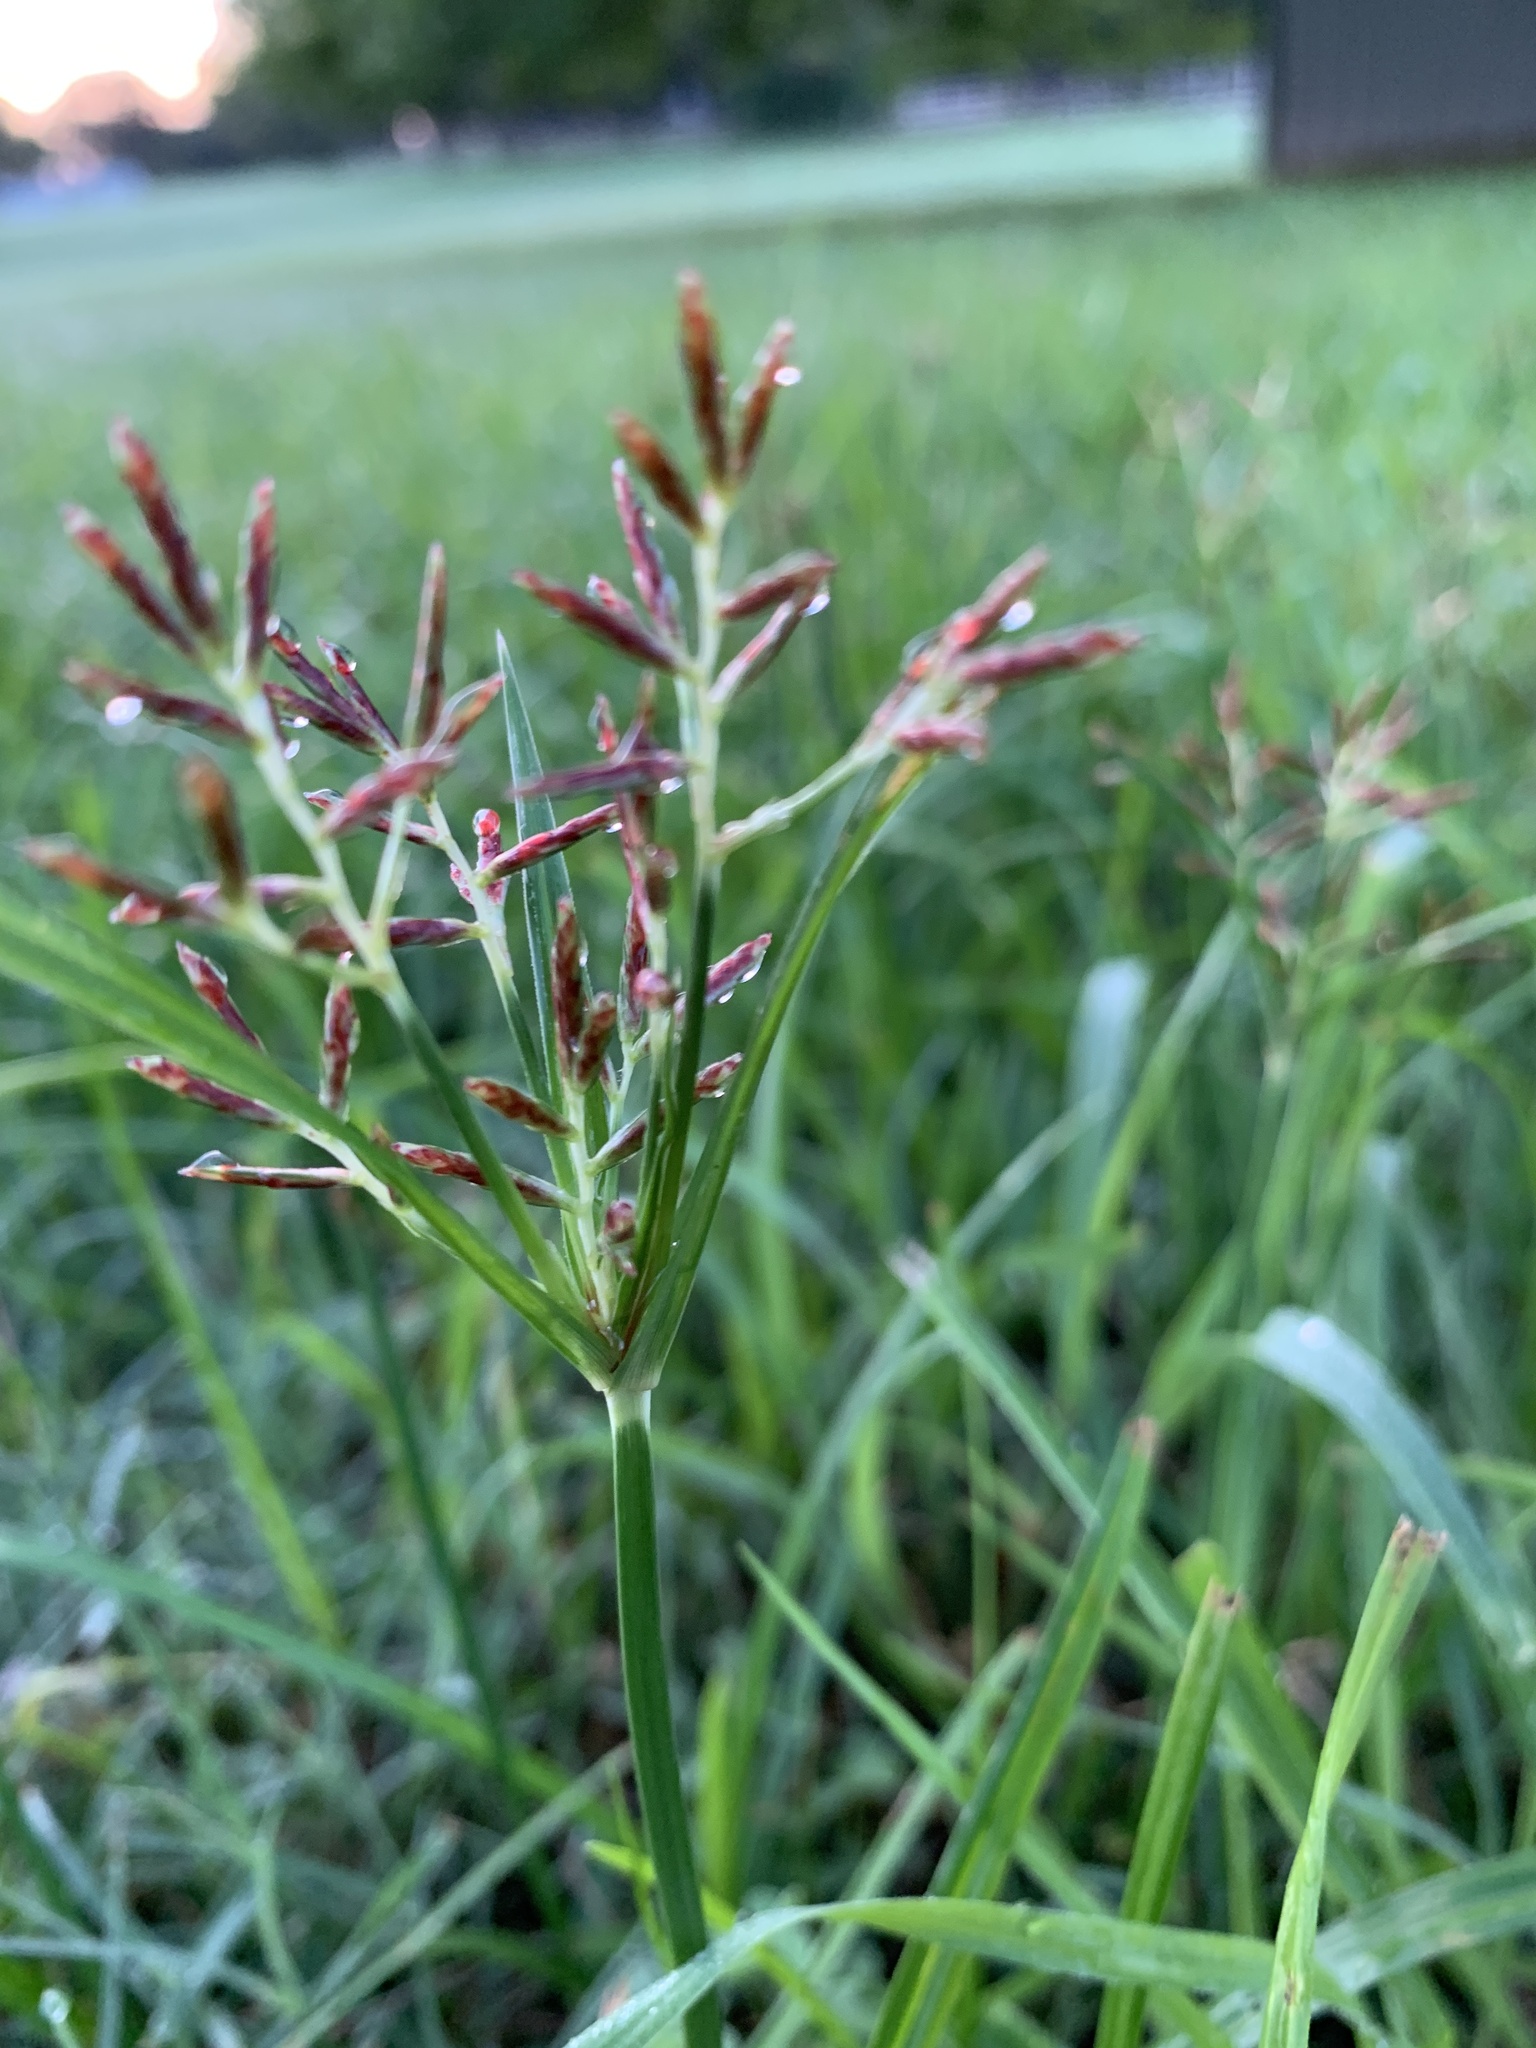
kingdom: Plantae
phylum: Tracheophyta
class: Liliopsida
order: Poales
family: Cyperaceae
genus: Cyperus
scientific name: Cyperus rotundus
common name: Nutgrass
